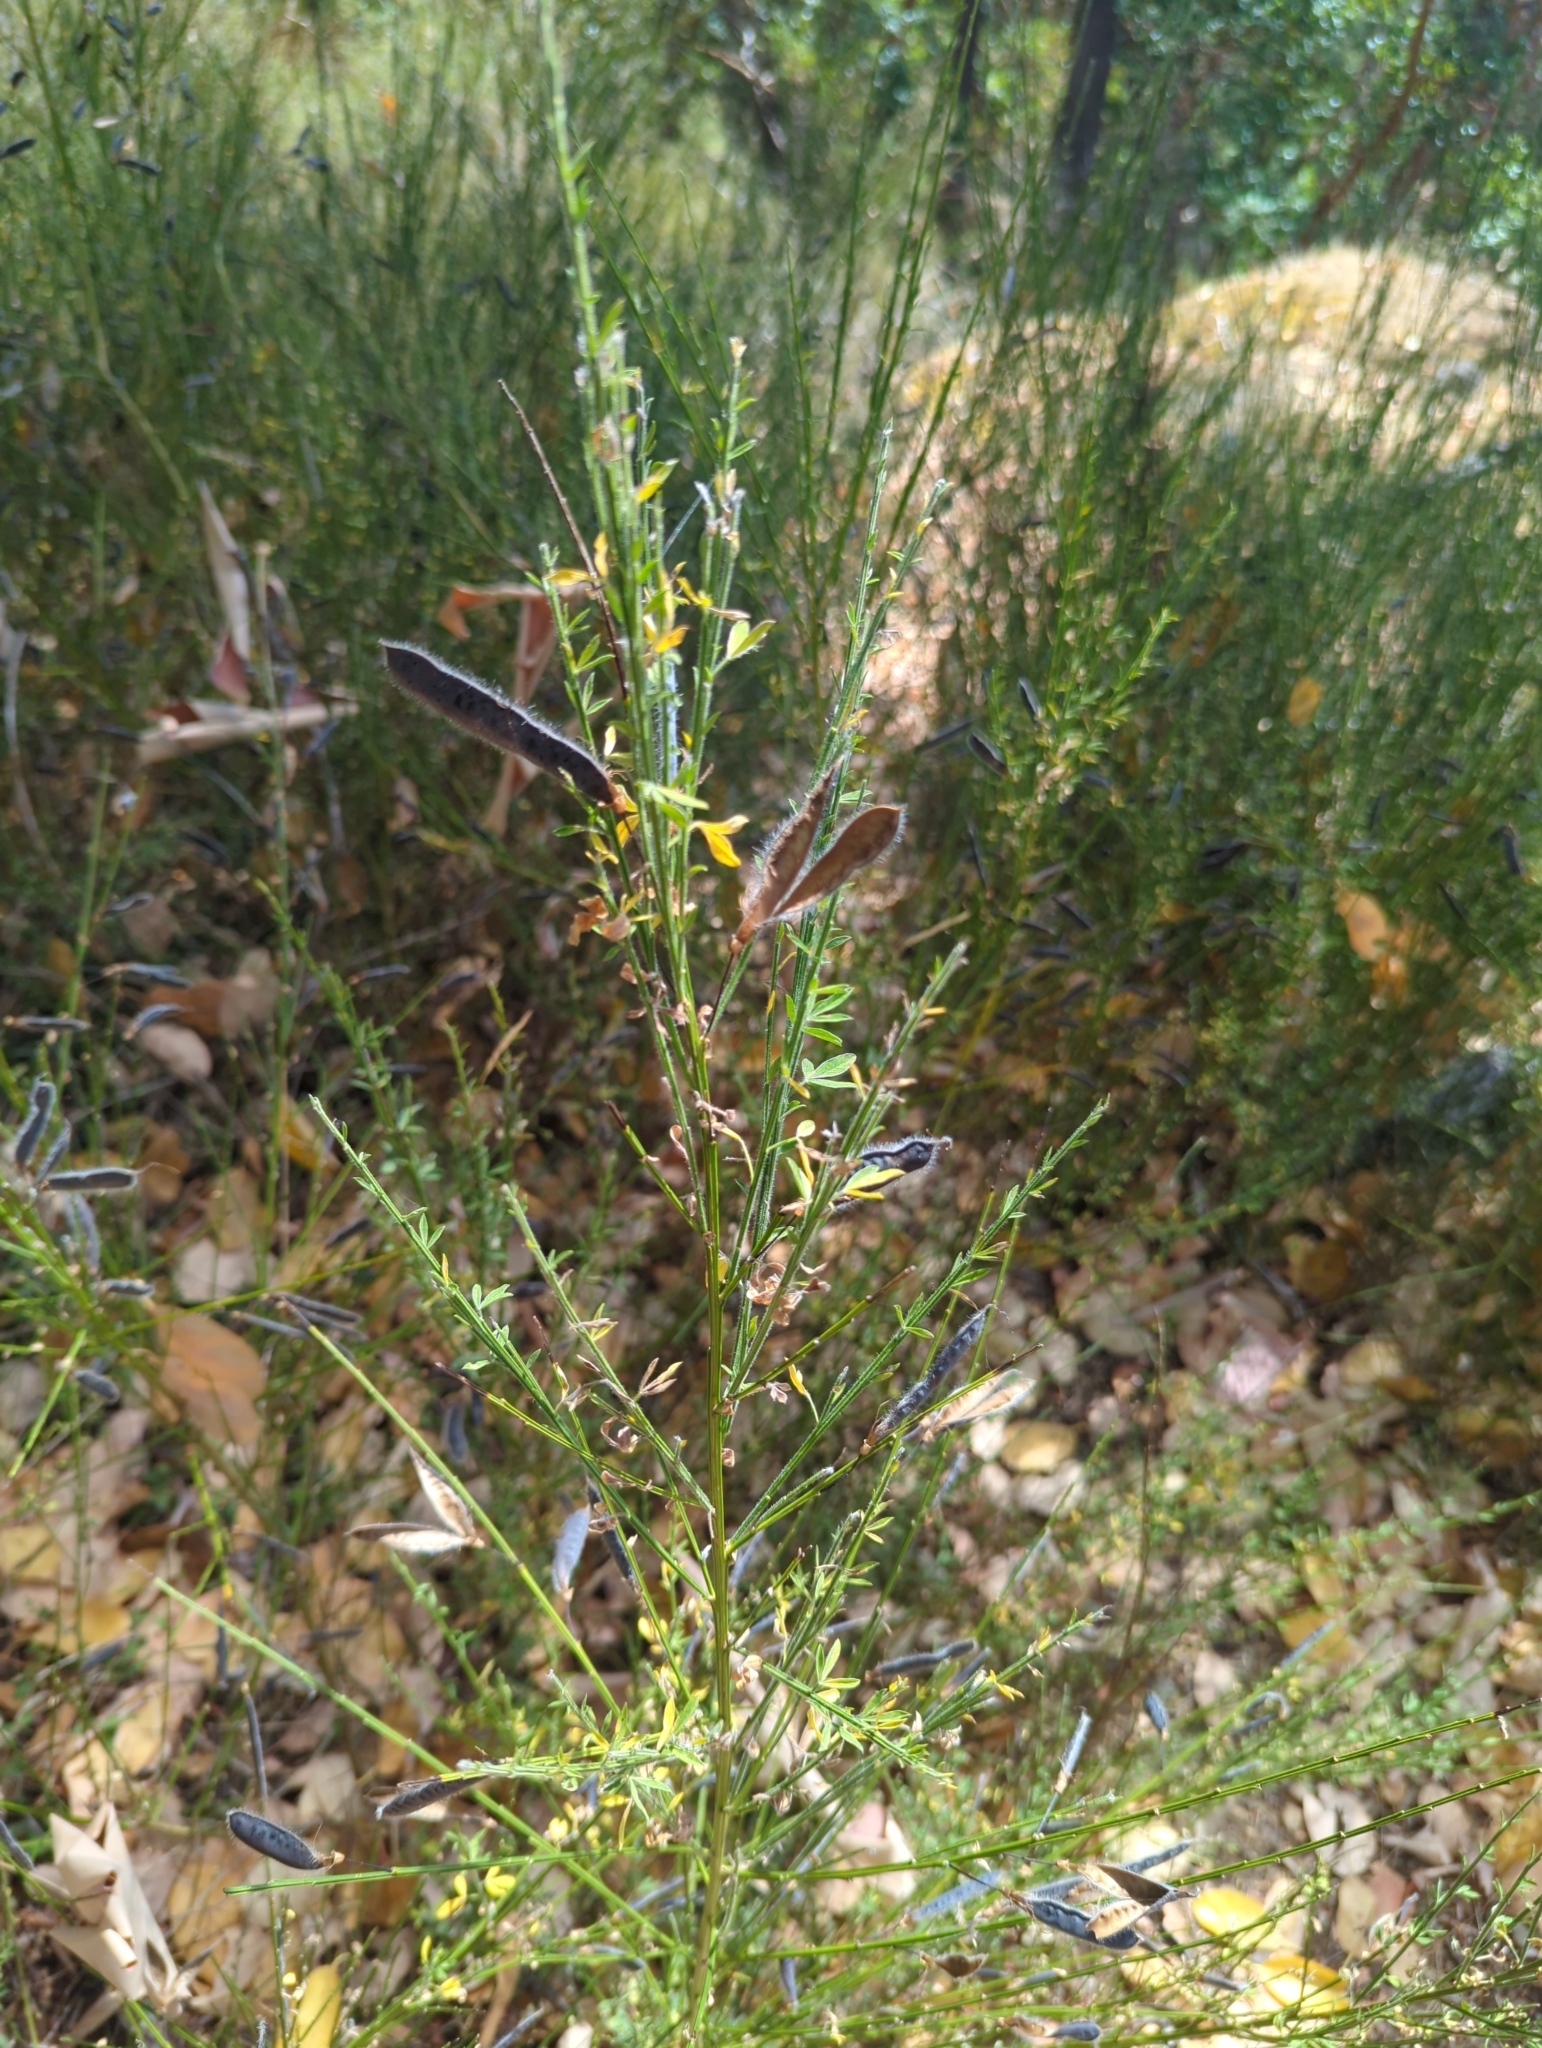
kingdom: Plantae
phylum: Tracheophyta
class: Magnoliopsida
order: Fabales
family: Fabaceae
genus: Cytisus
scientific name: Cytisus scoparius
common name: Scotch broom
